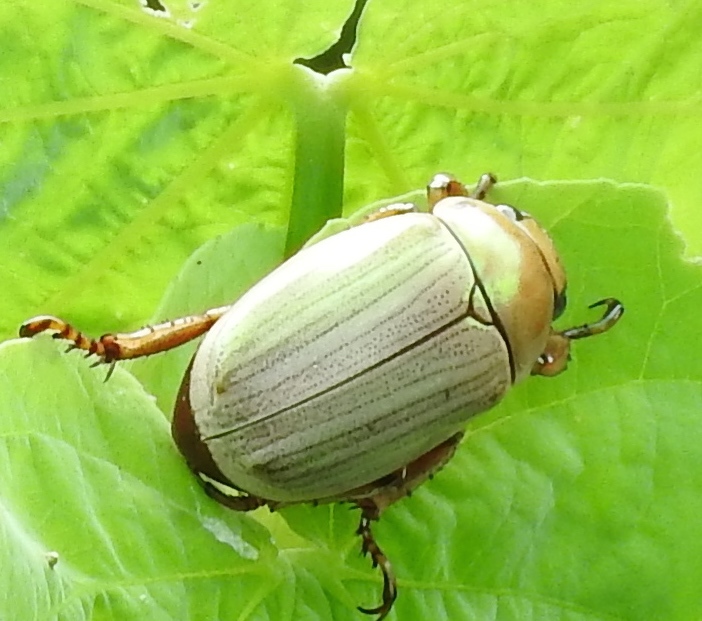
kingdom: Animalia
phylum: Arthropoda
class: Insecta
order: Coleoptera
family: Scarabaeidae
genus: Pelidnota
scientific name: Pelidnota virescens
